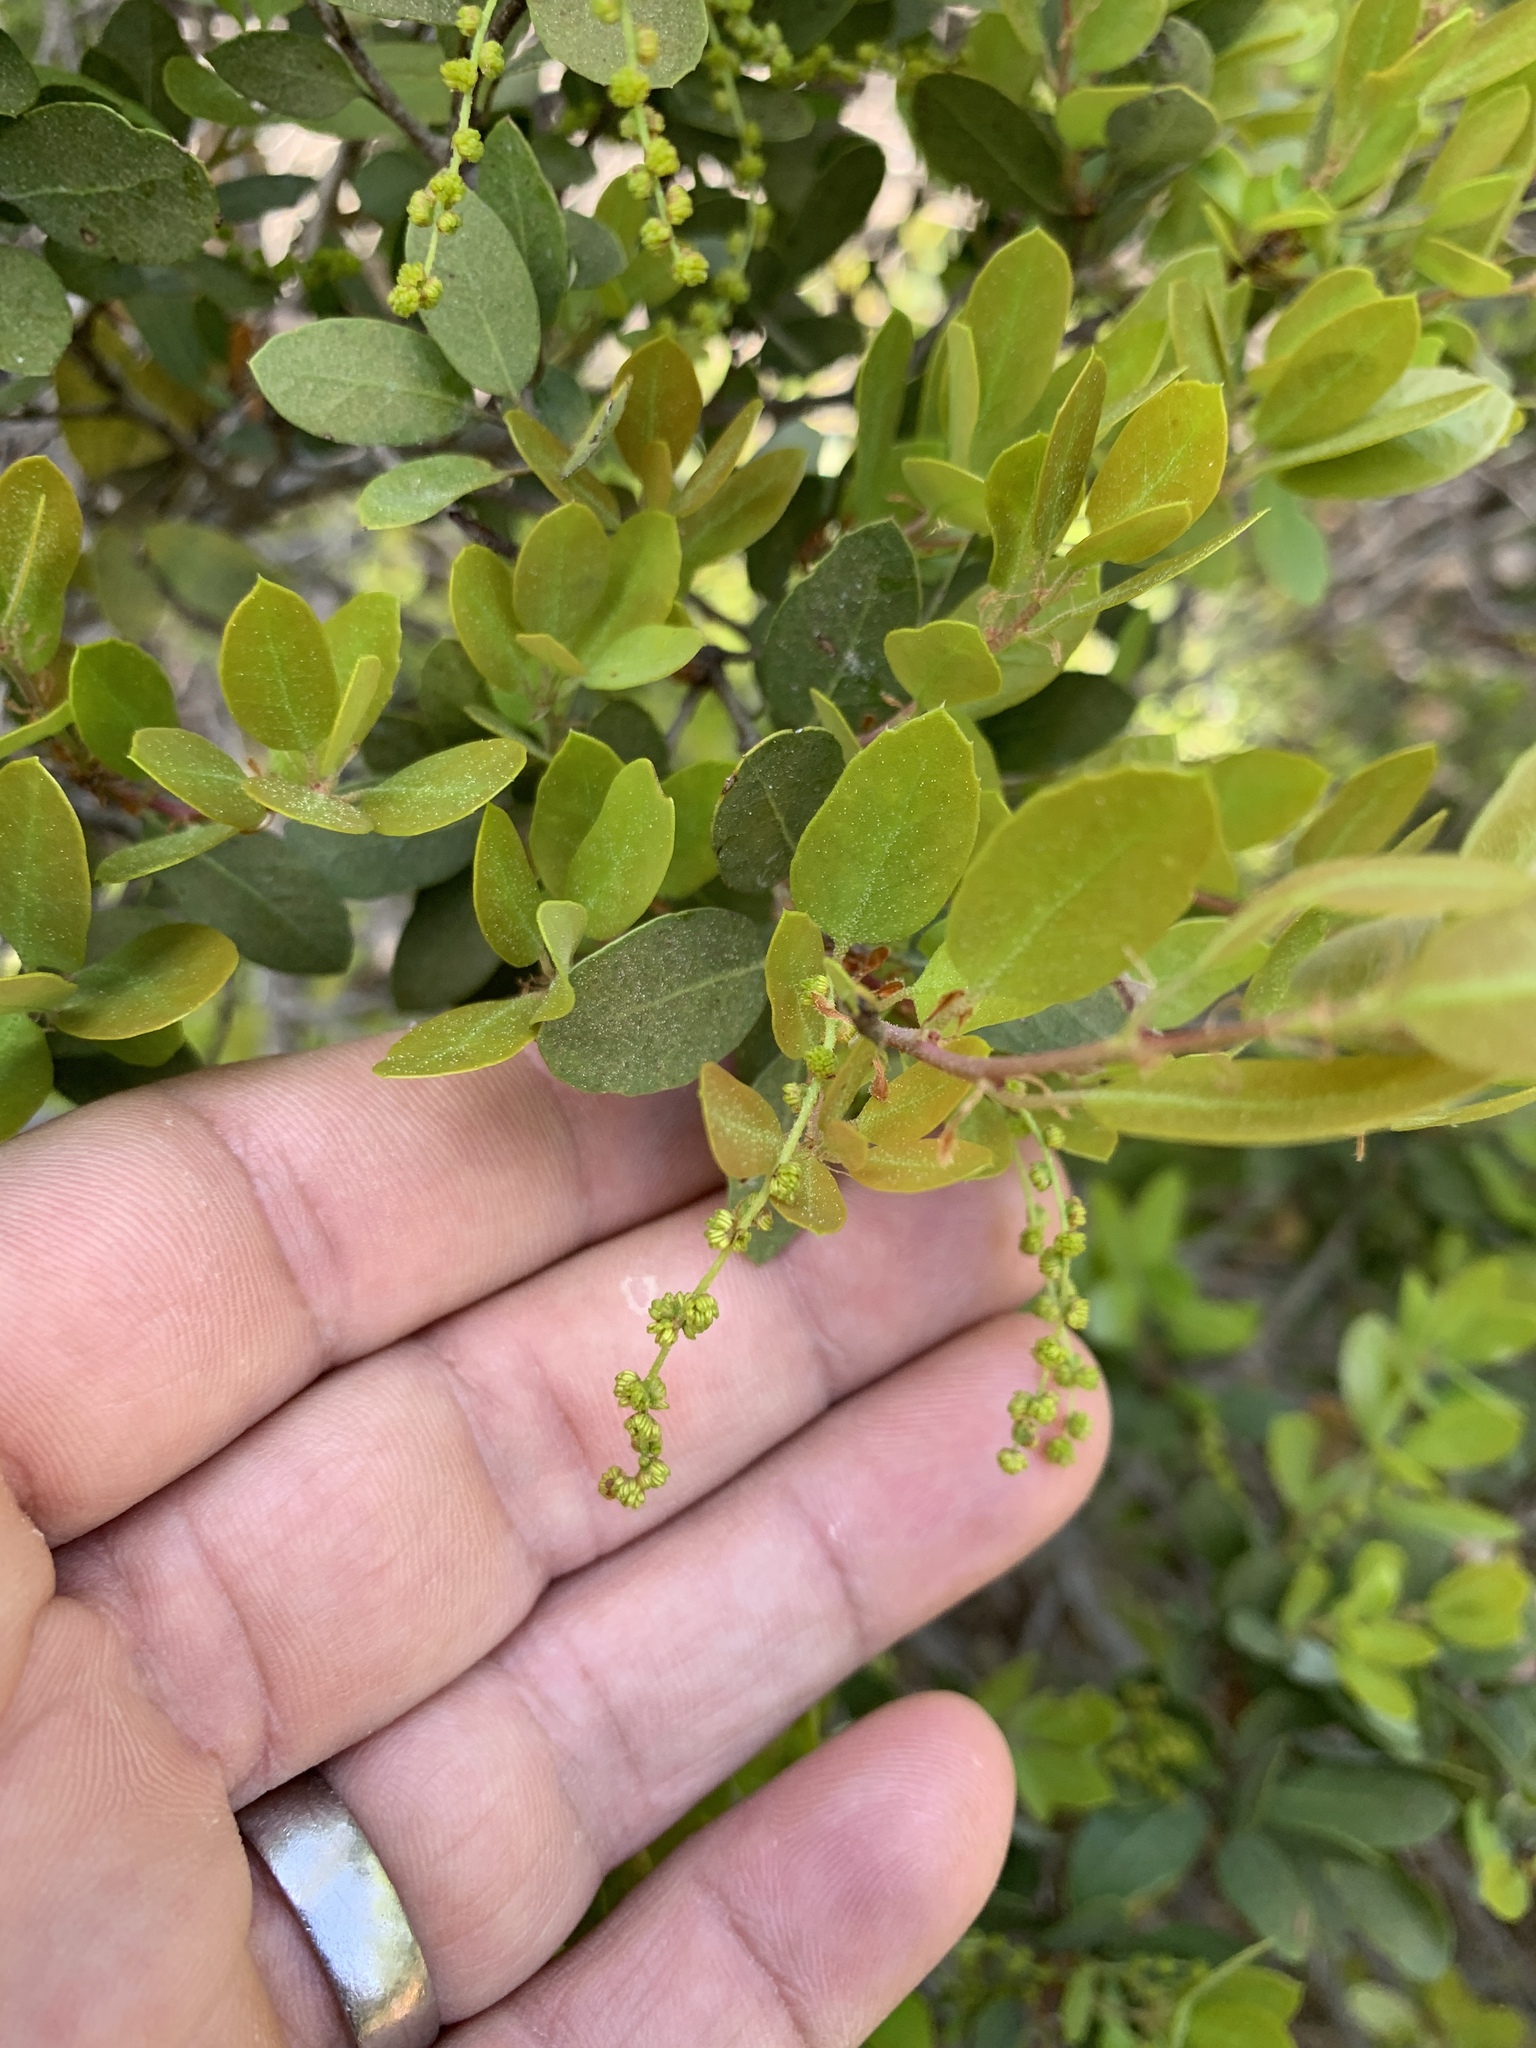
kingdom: Plantae
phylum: Tracheophyta
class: Magnoliopsida
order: Fagales
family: Fagaceae
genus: Quercus
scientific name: Quercus vacciniifolia
